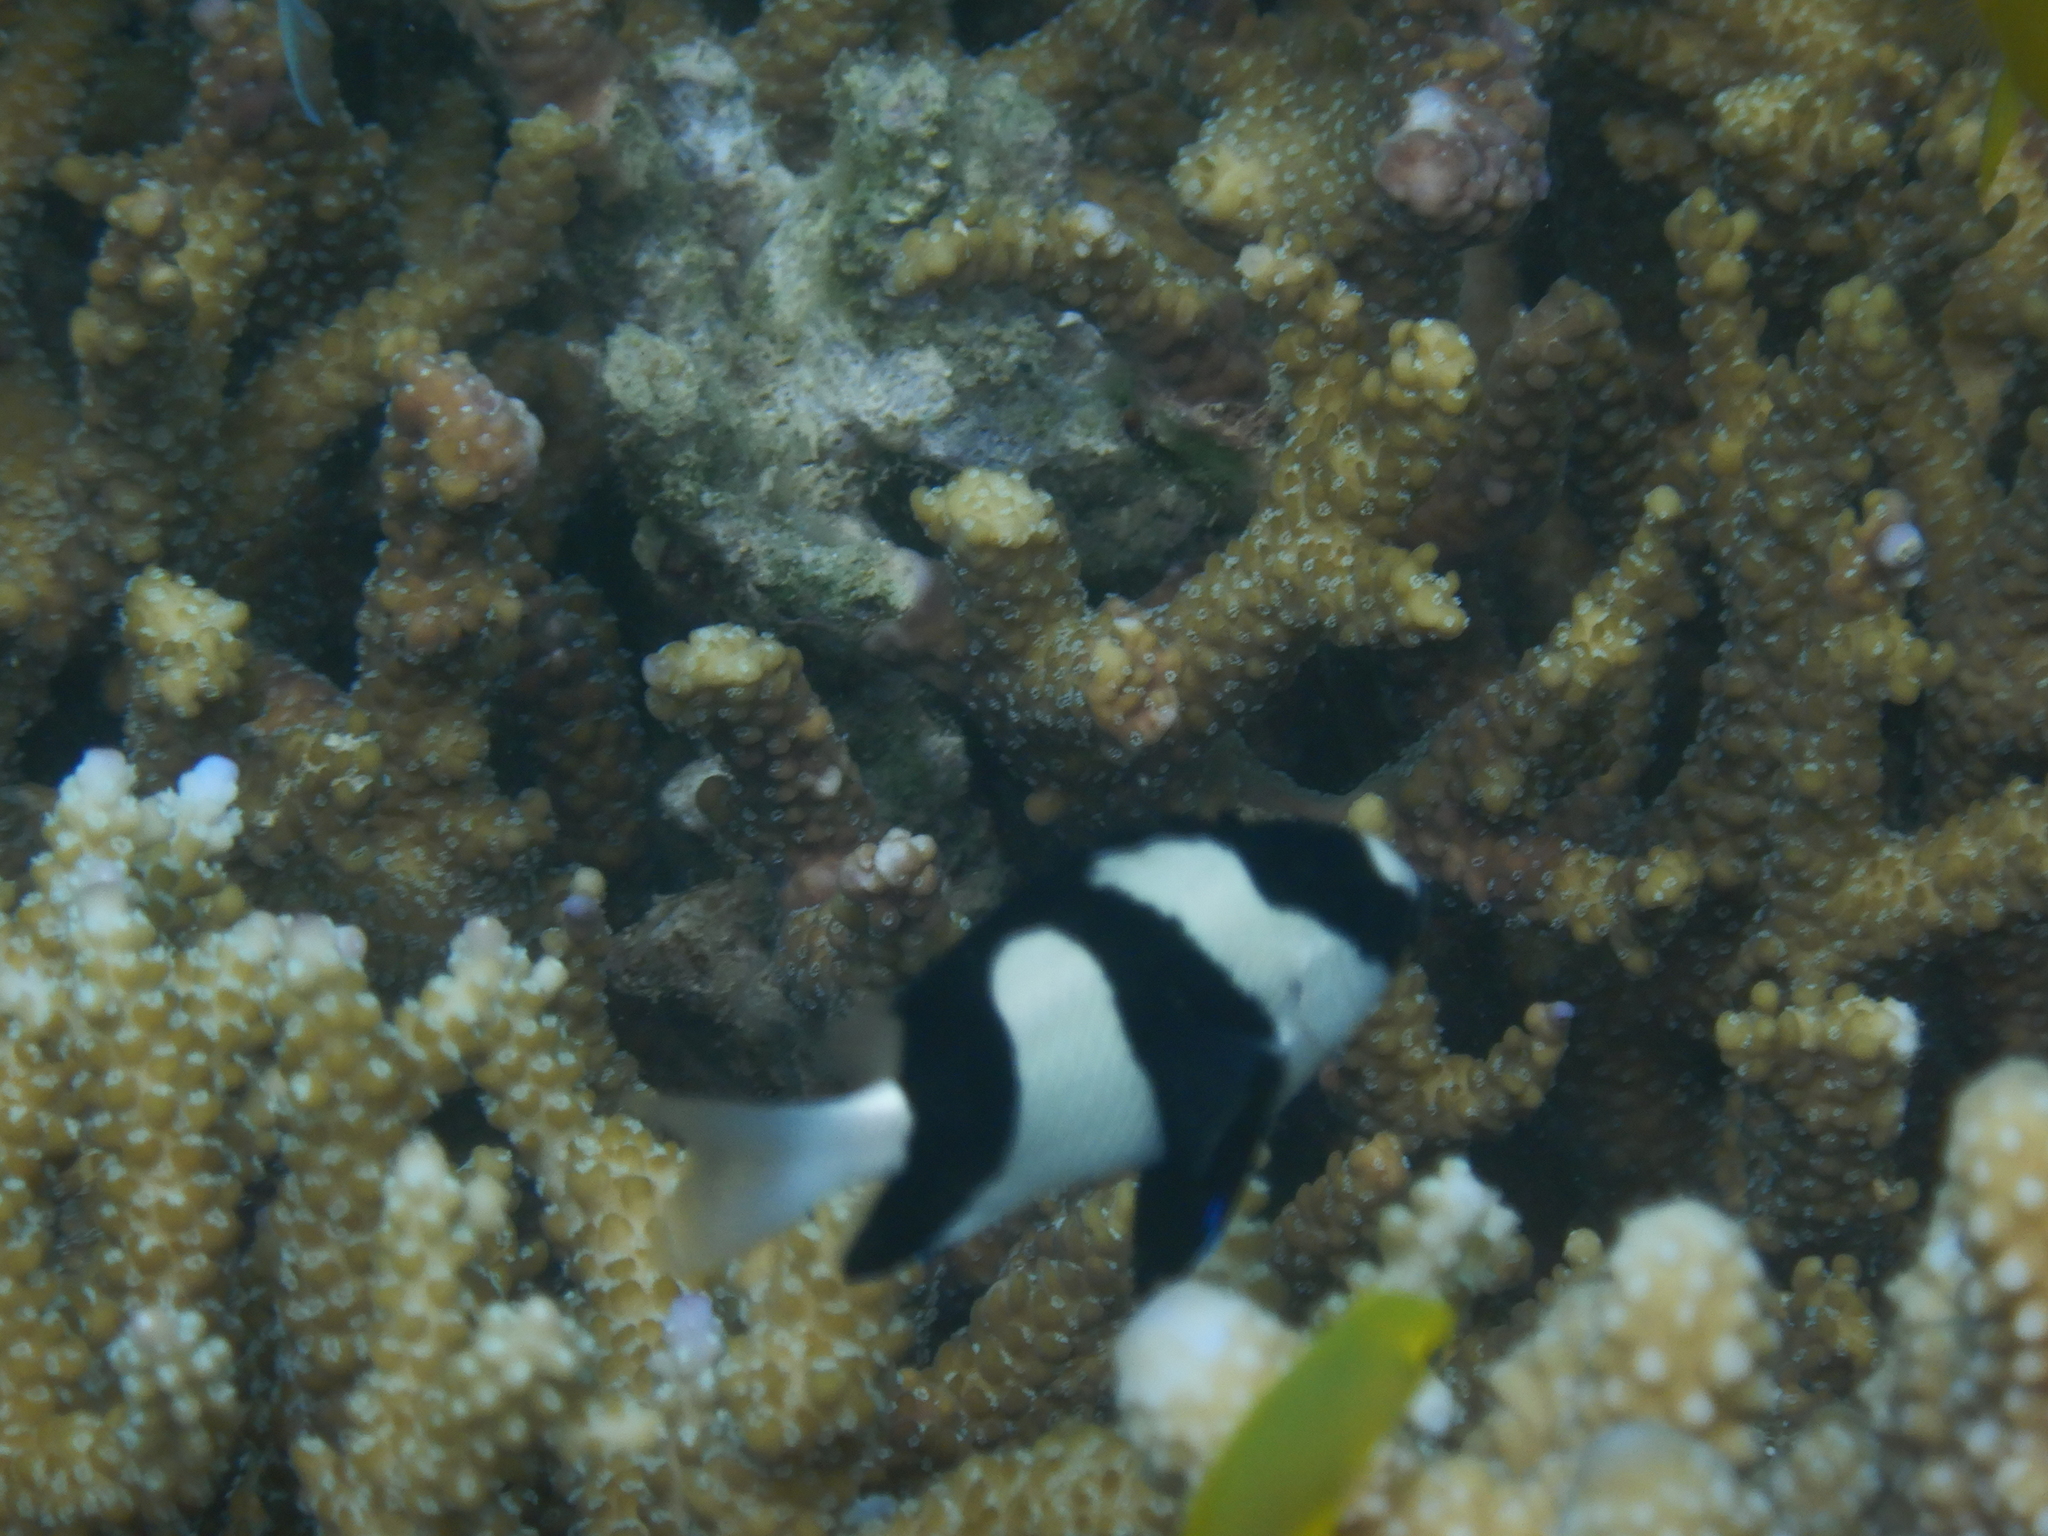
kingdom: Animalia
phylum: Chordata
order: Perciformes
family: Pomacentridae
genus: Dascyllus
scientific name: Dascyllus aruanus
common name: Humbug dascyllus
